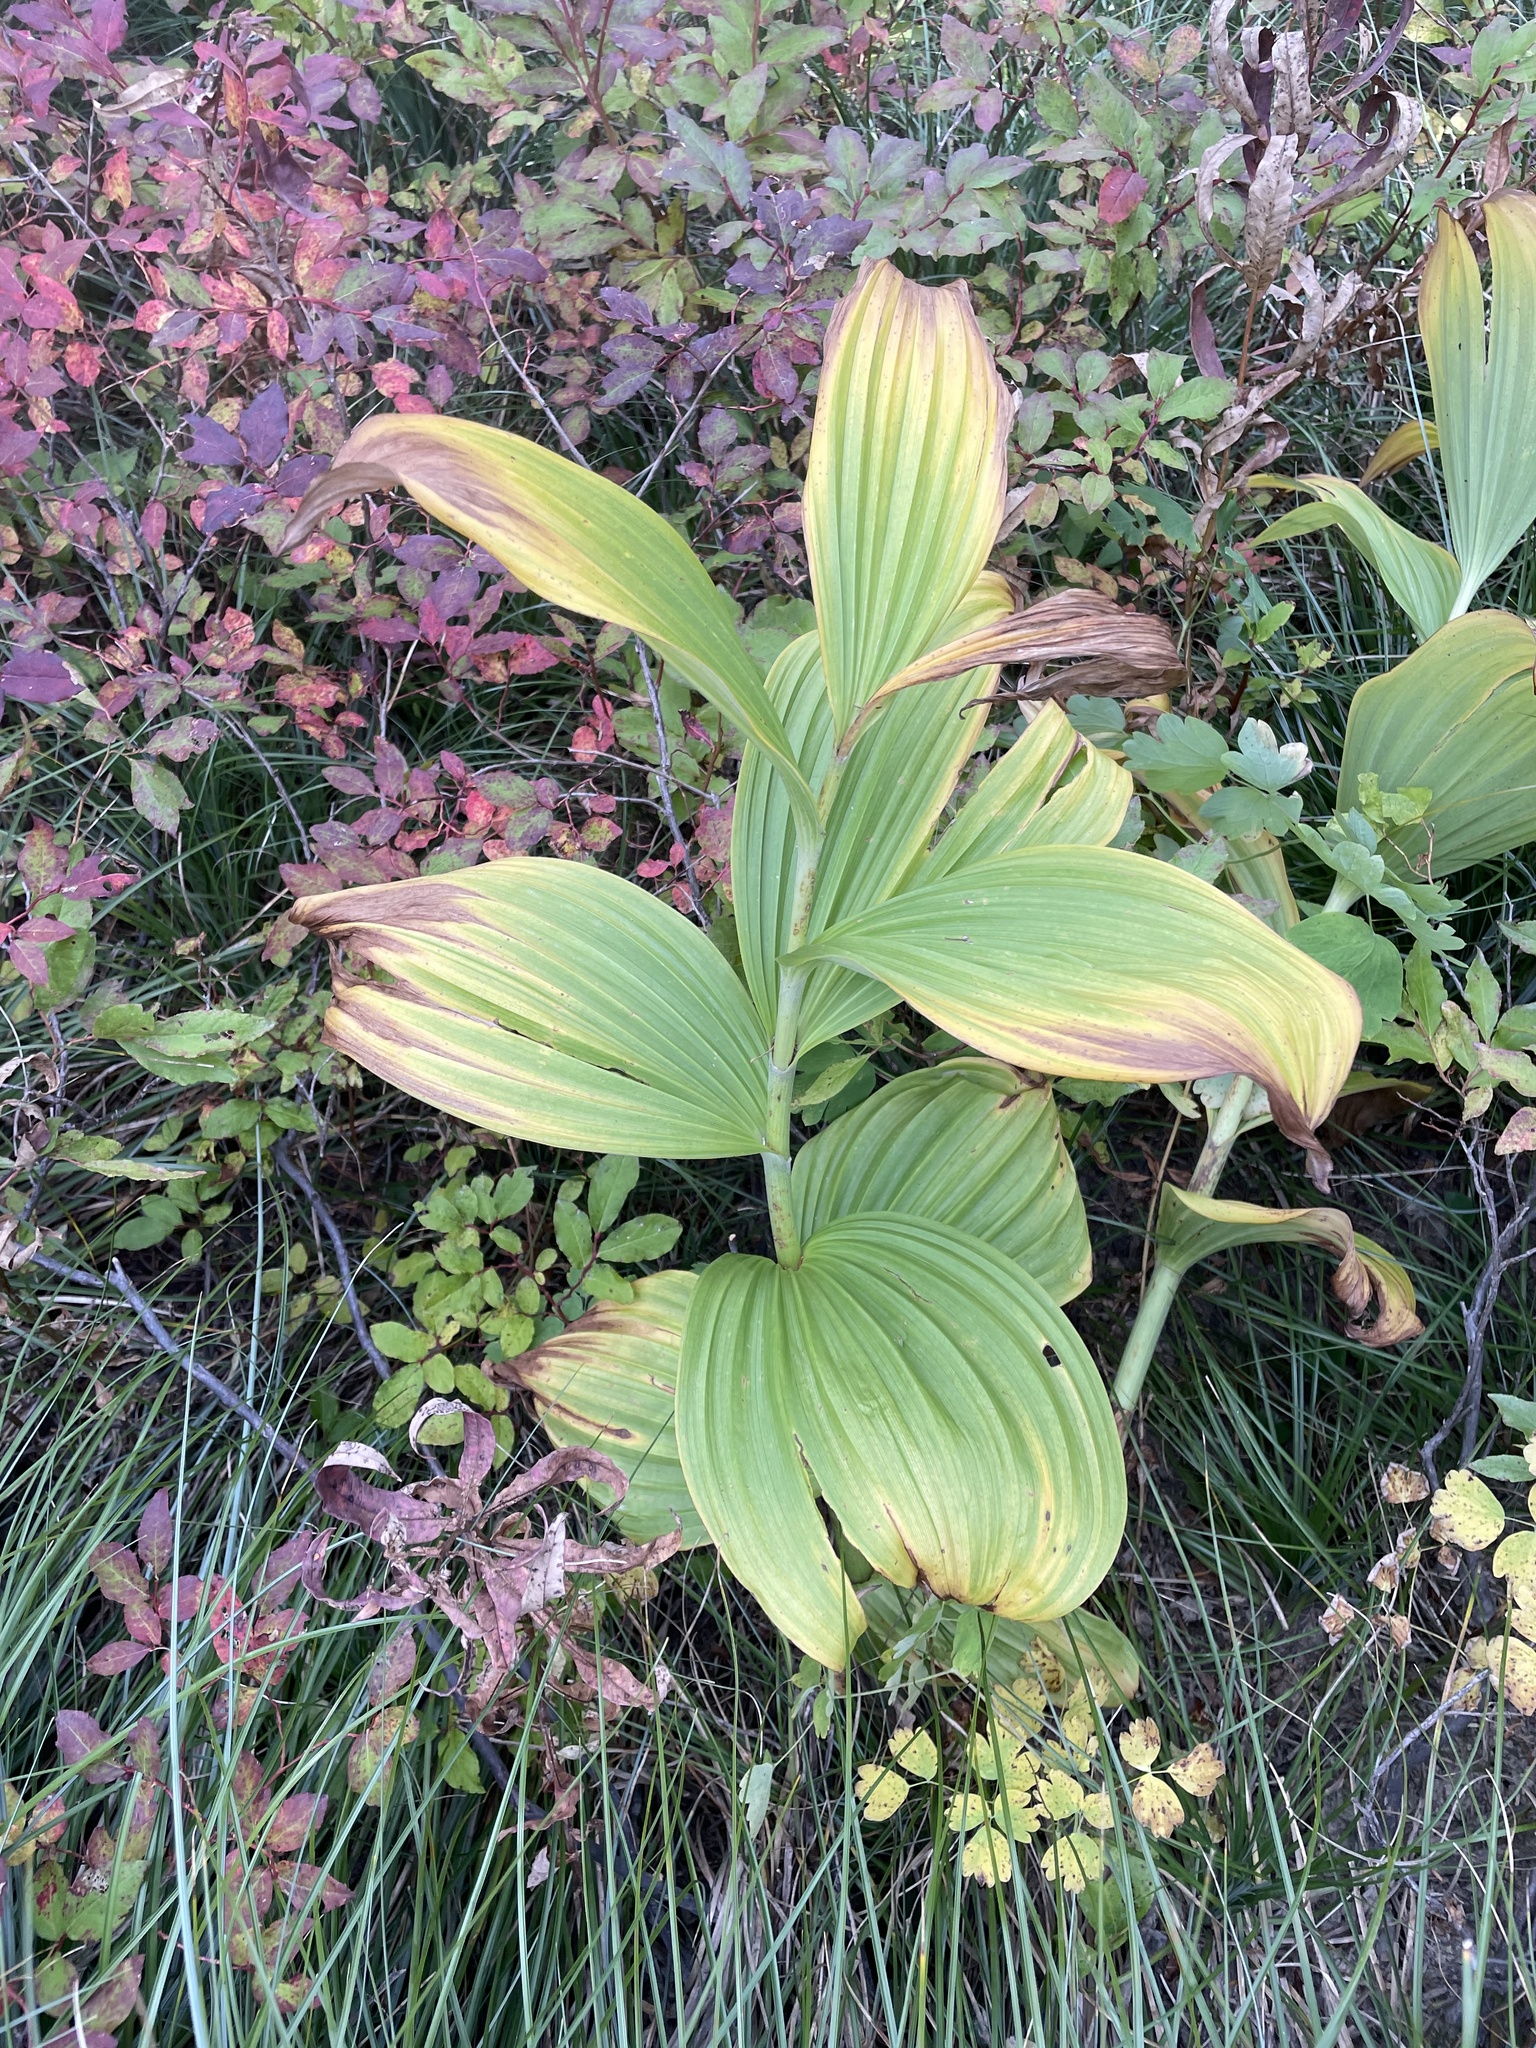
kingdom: Plantae
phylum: Tracheophyta
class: Liliopsida
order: Liliales
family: Melanthiaceae
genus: Veratrum
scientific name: Veratrum viride
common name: American false hellebore
